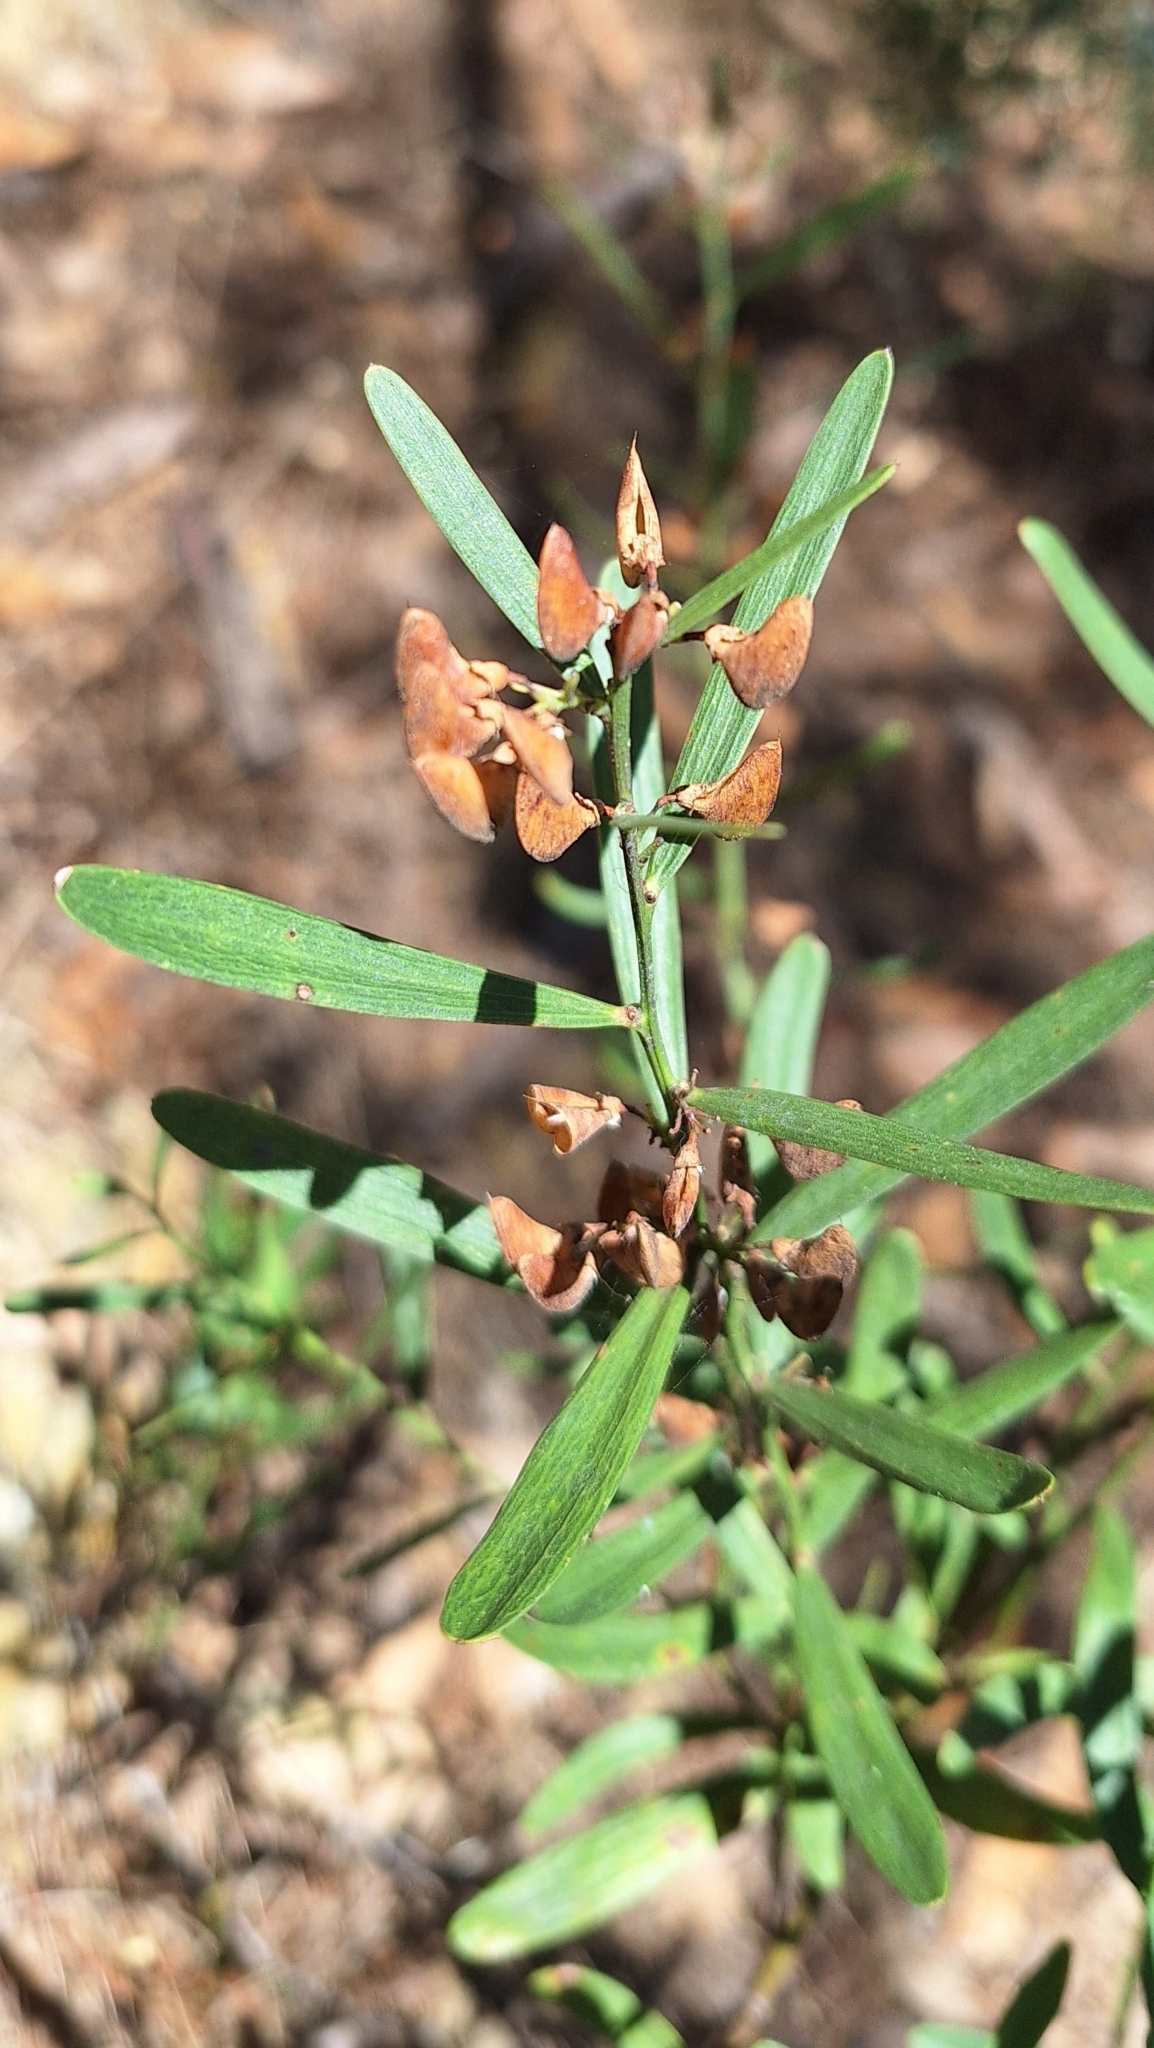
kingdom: Plantae
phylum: Tracheophyta
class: Magnoliopsida
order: Fabales
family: Fabaceae
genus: Daviesia
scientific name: Daviesia leptophylla
